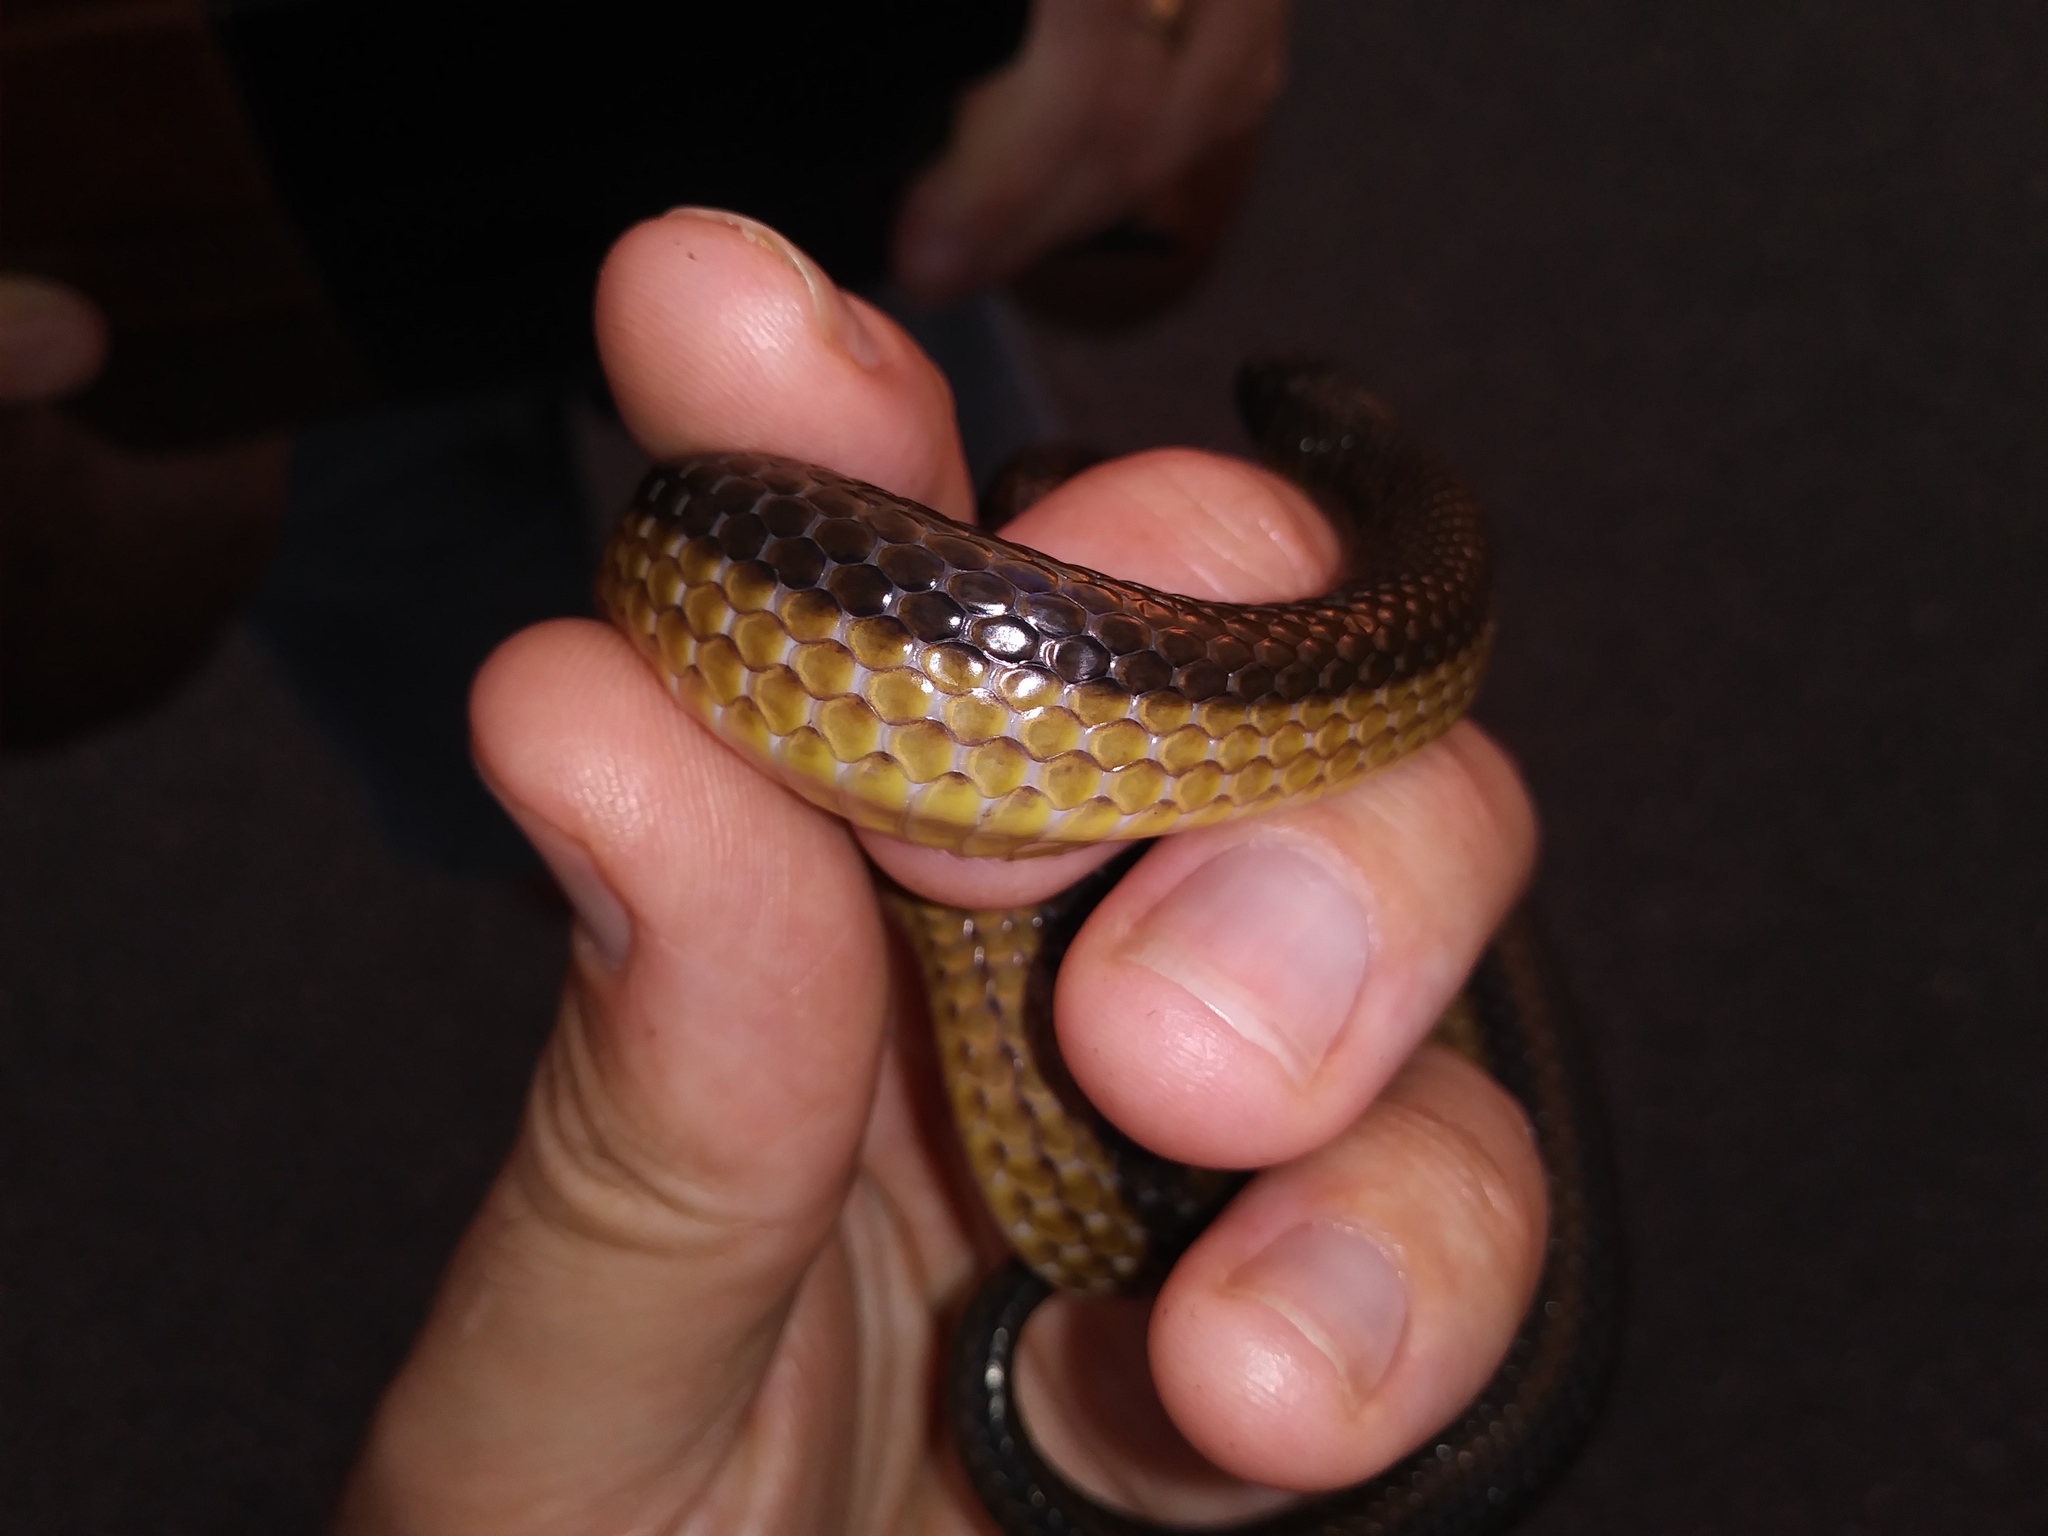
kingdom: Animalia
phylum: Chordata
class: Squamata
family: Colubridae
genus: Liodytes
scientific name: Liodytes alleni
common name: Striped crayfish snake
